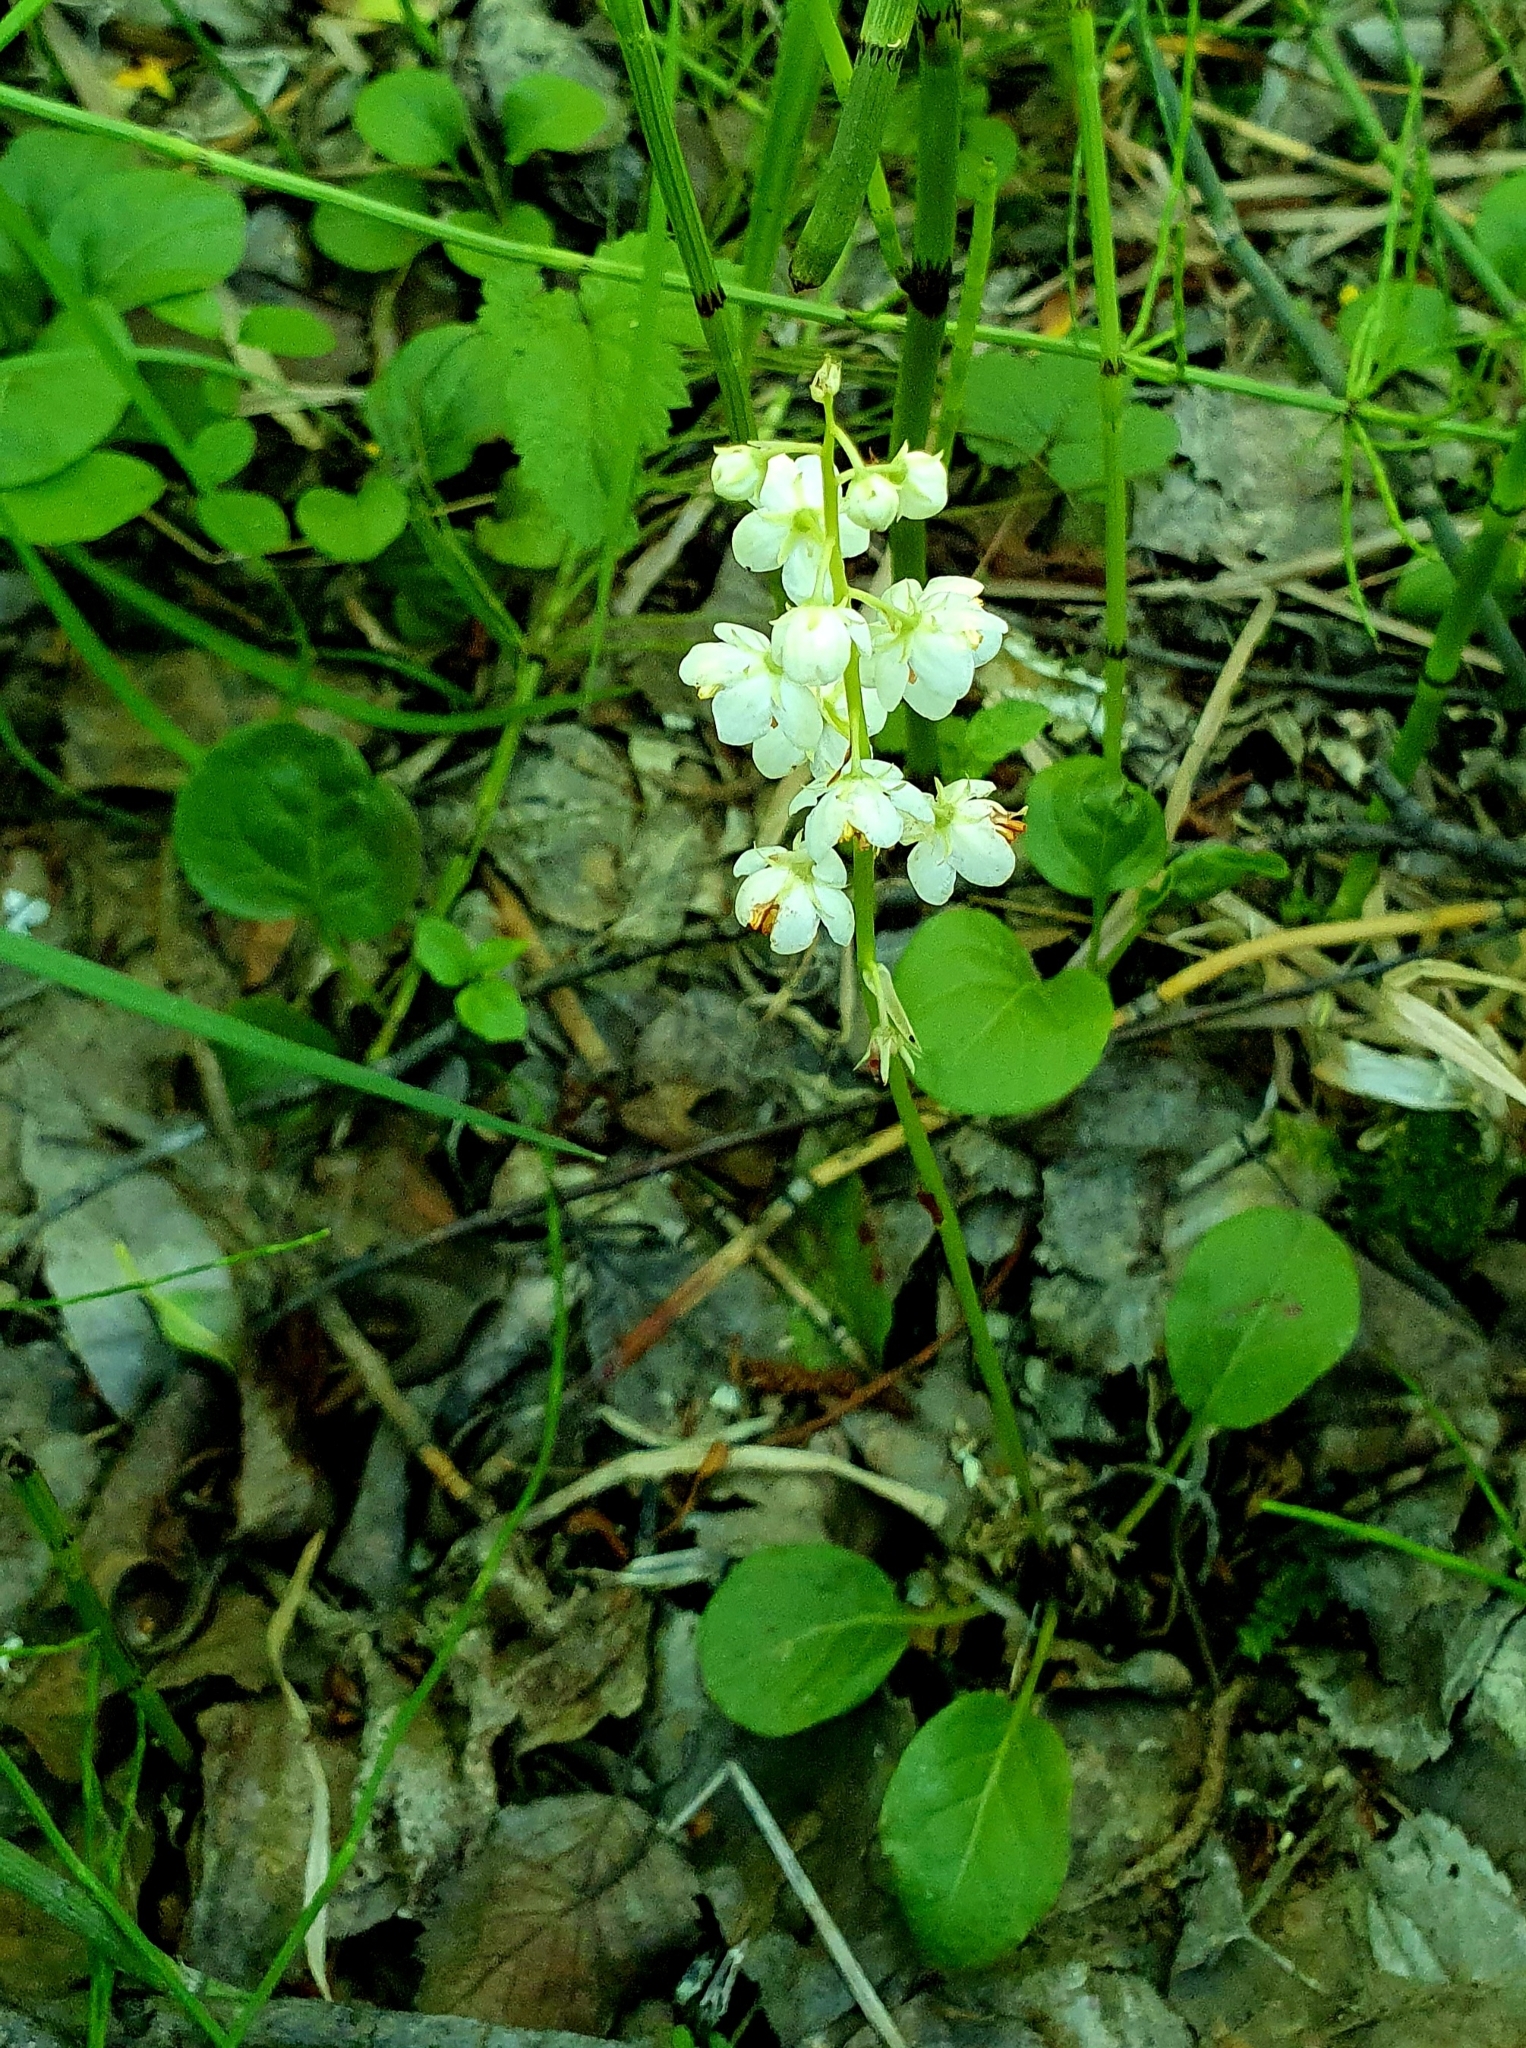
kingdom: Plantae
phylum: Tracheophyta
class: Magnoliopsida
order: Ericales
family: Ericaceae
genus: Pyrola
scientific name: Pyrola rotundifolia
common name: Round-leaved wintergreen
